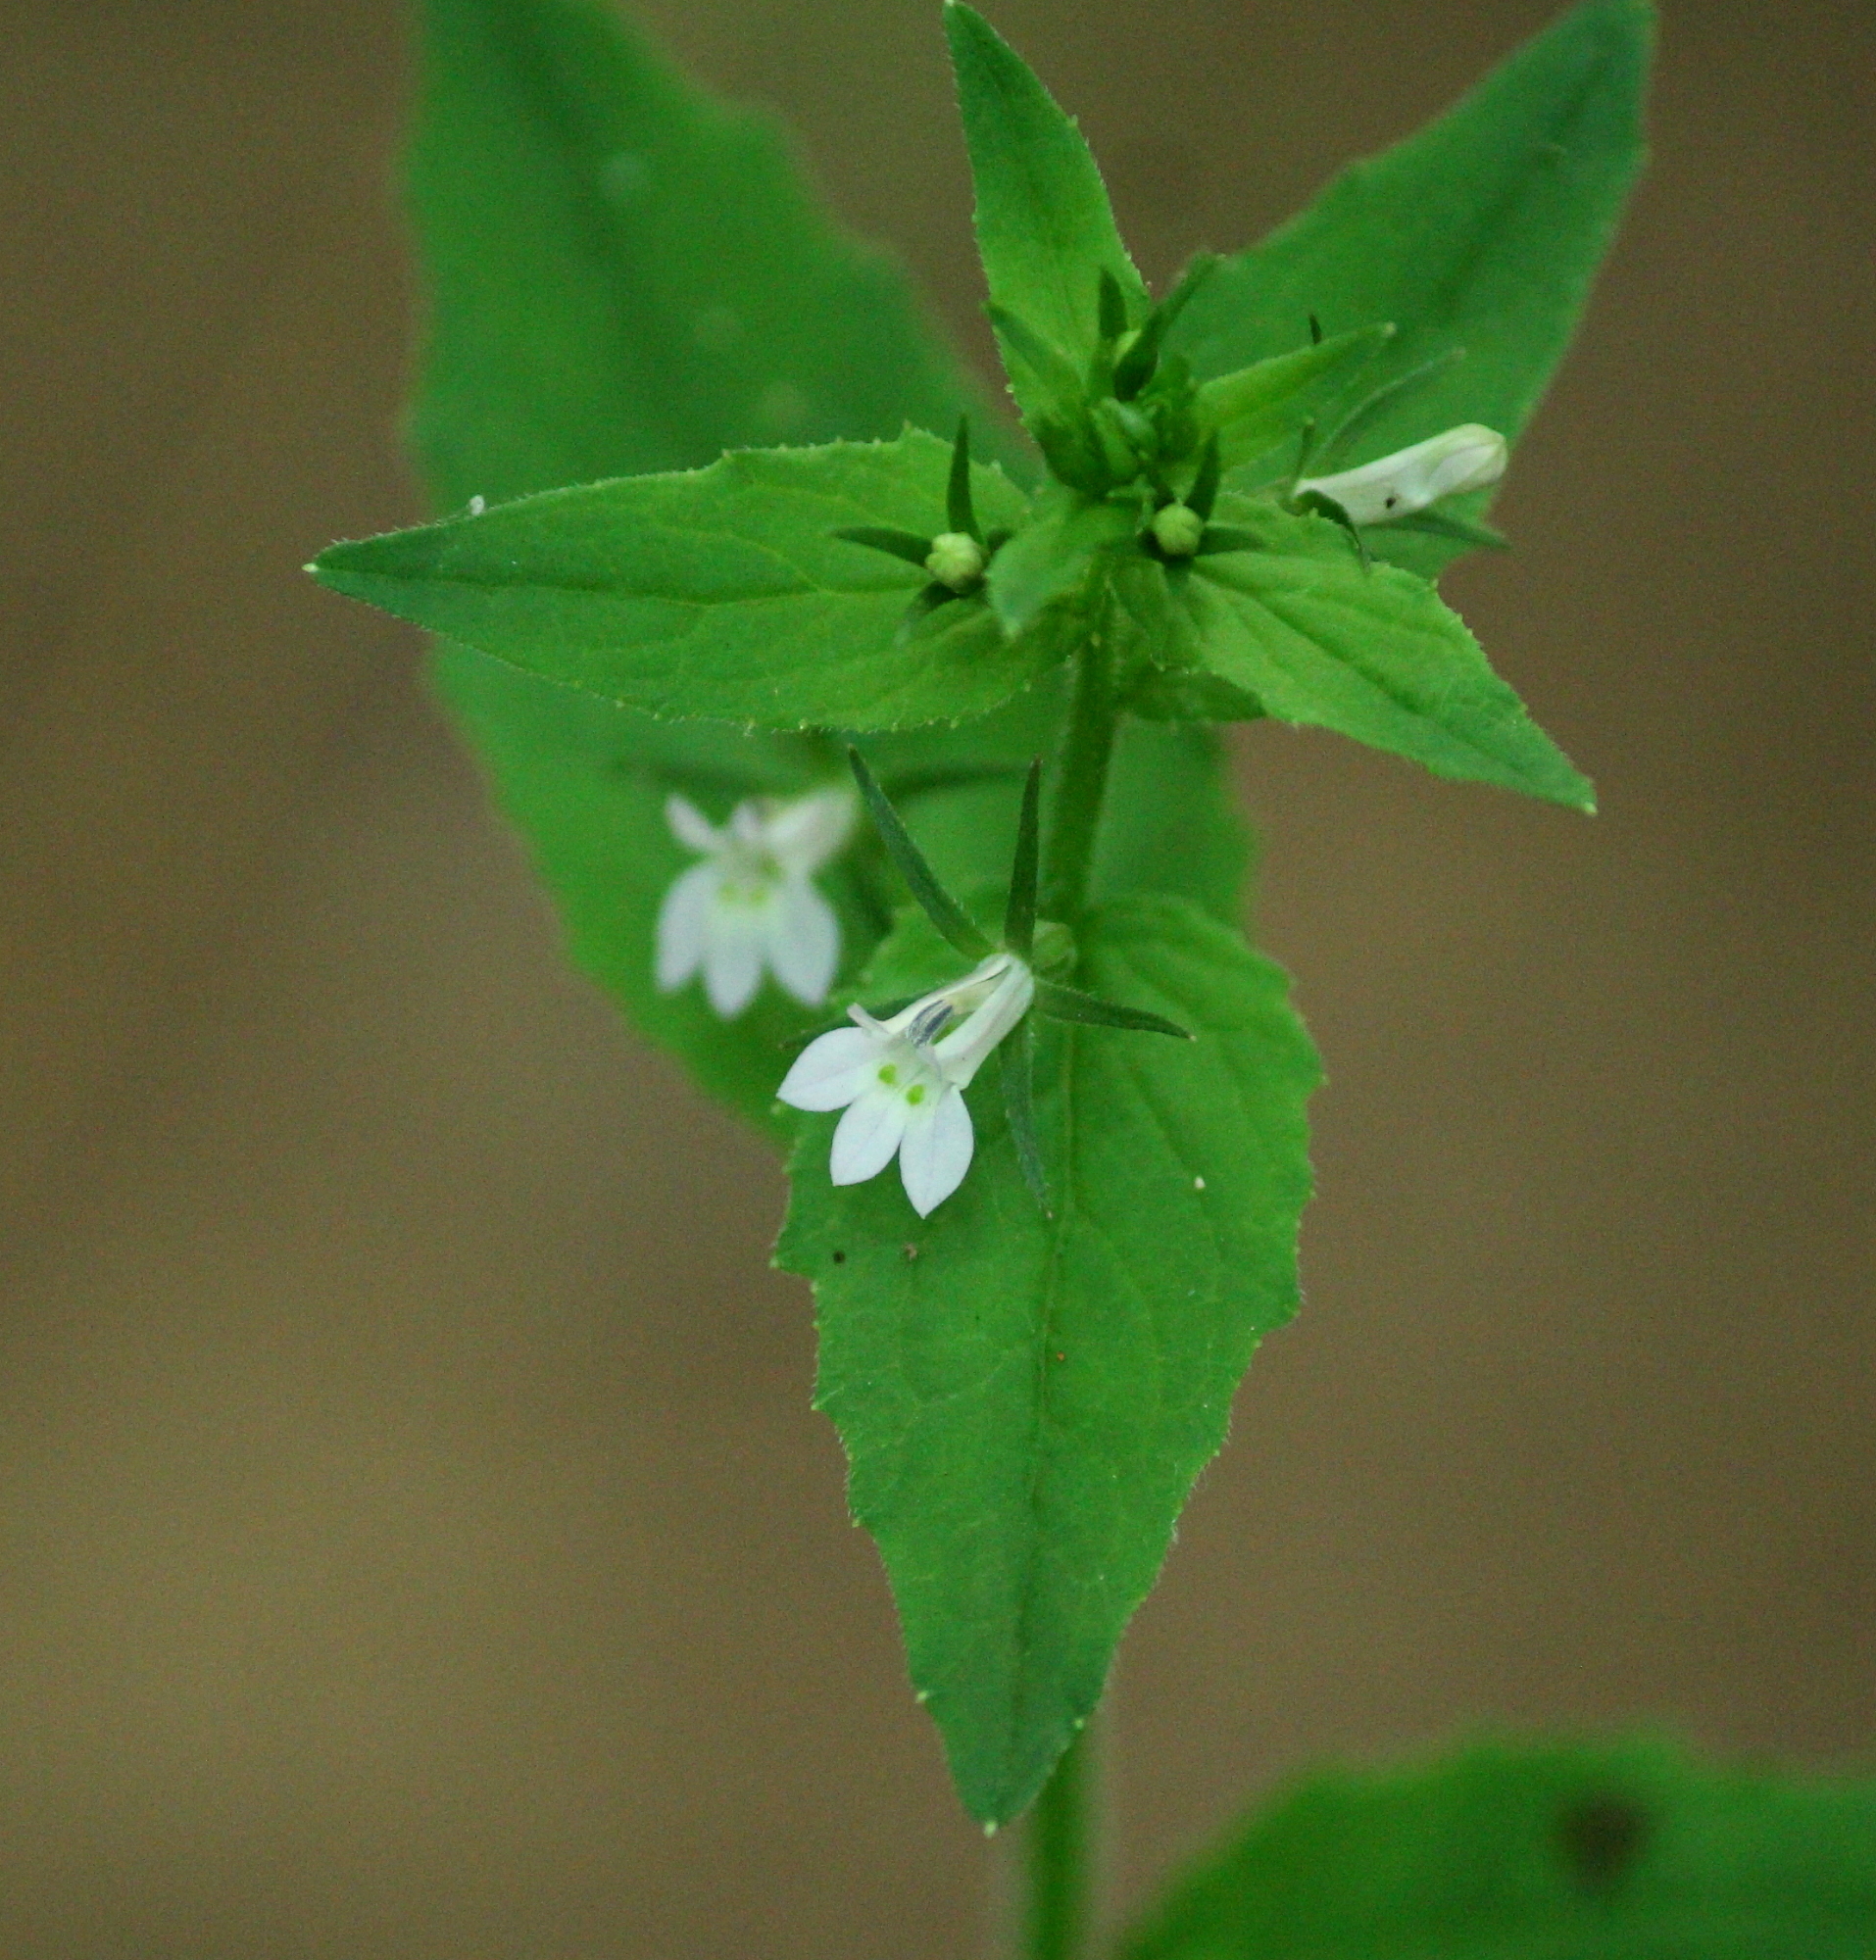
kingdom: Plantae
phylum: Tracheophyta
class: Magnoliopsida
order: Asterales
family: Campanulaceae
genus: Lobelia
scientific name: Lobelia inflata
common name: Indian tobacco
